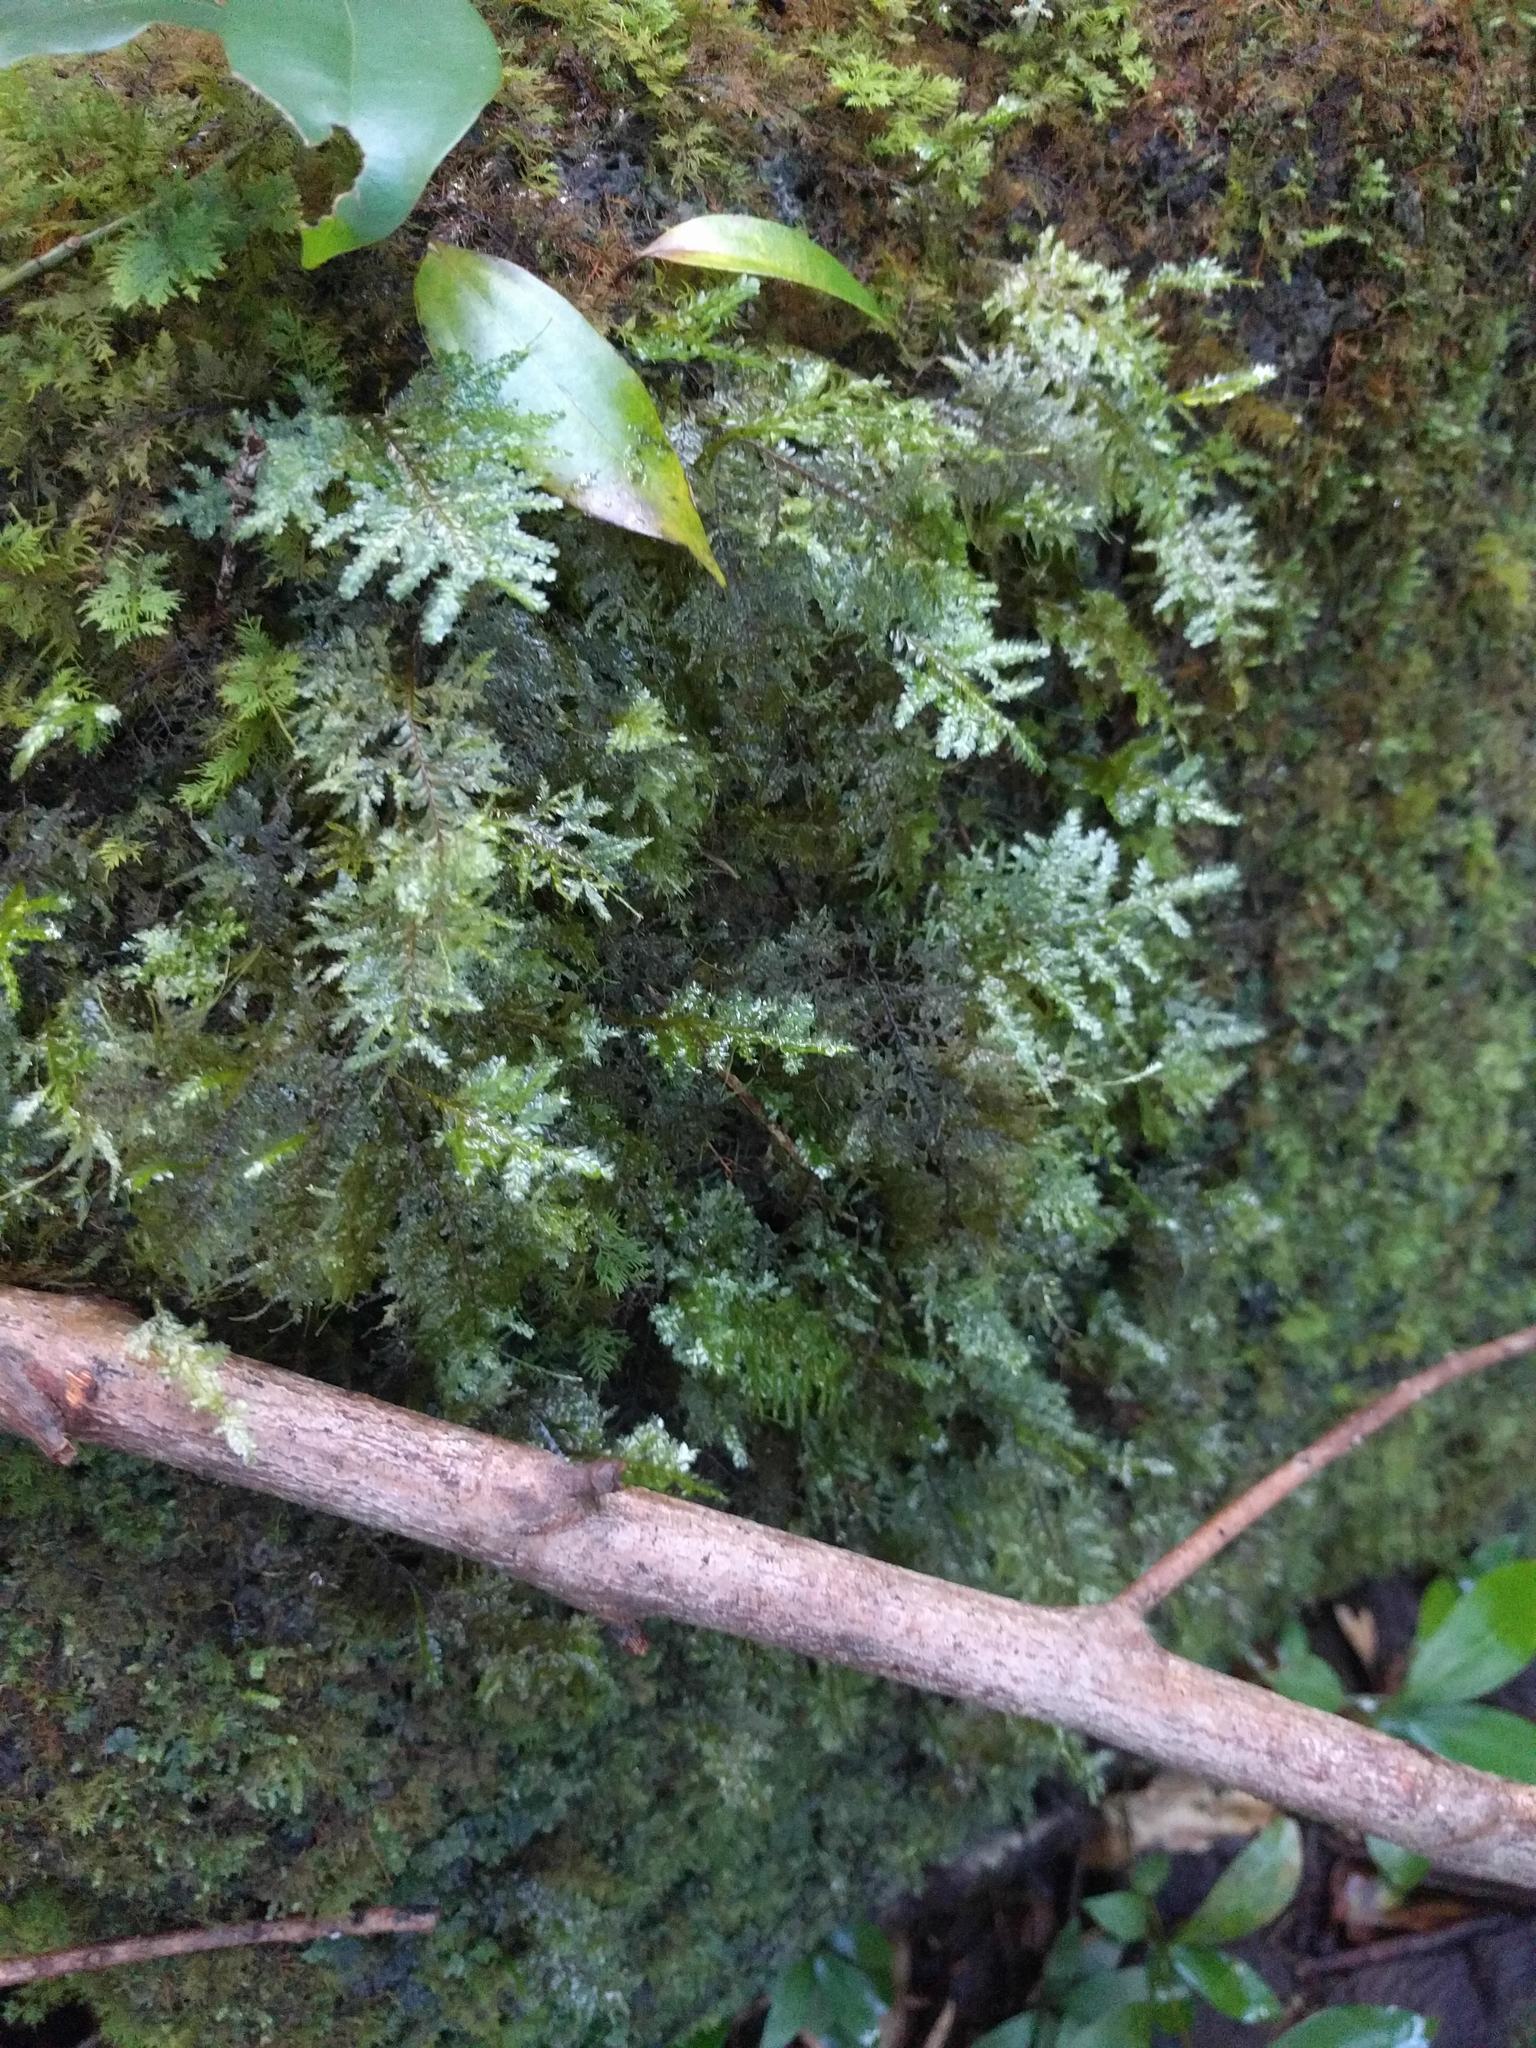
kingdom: Plantae
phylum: Bryophyta
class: Bryopsida
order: Hypnales
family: Neckeraceae
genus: Homaliodendron
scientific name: Homaliodendron flabellatum
